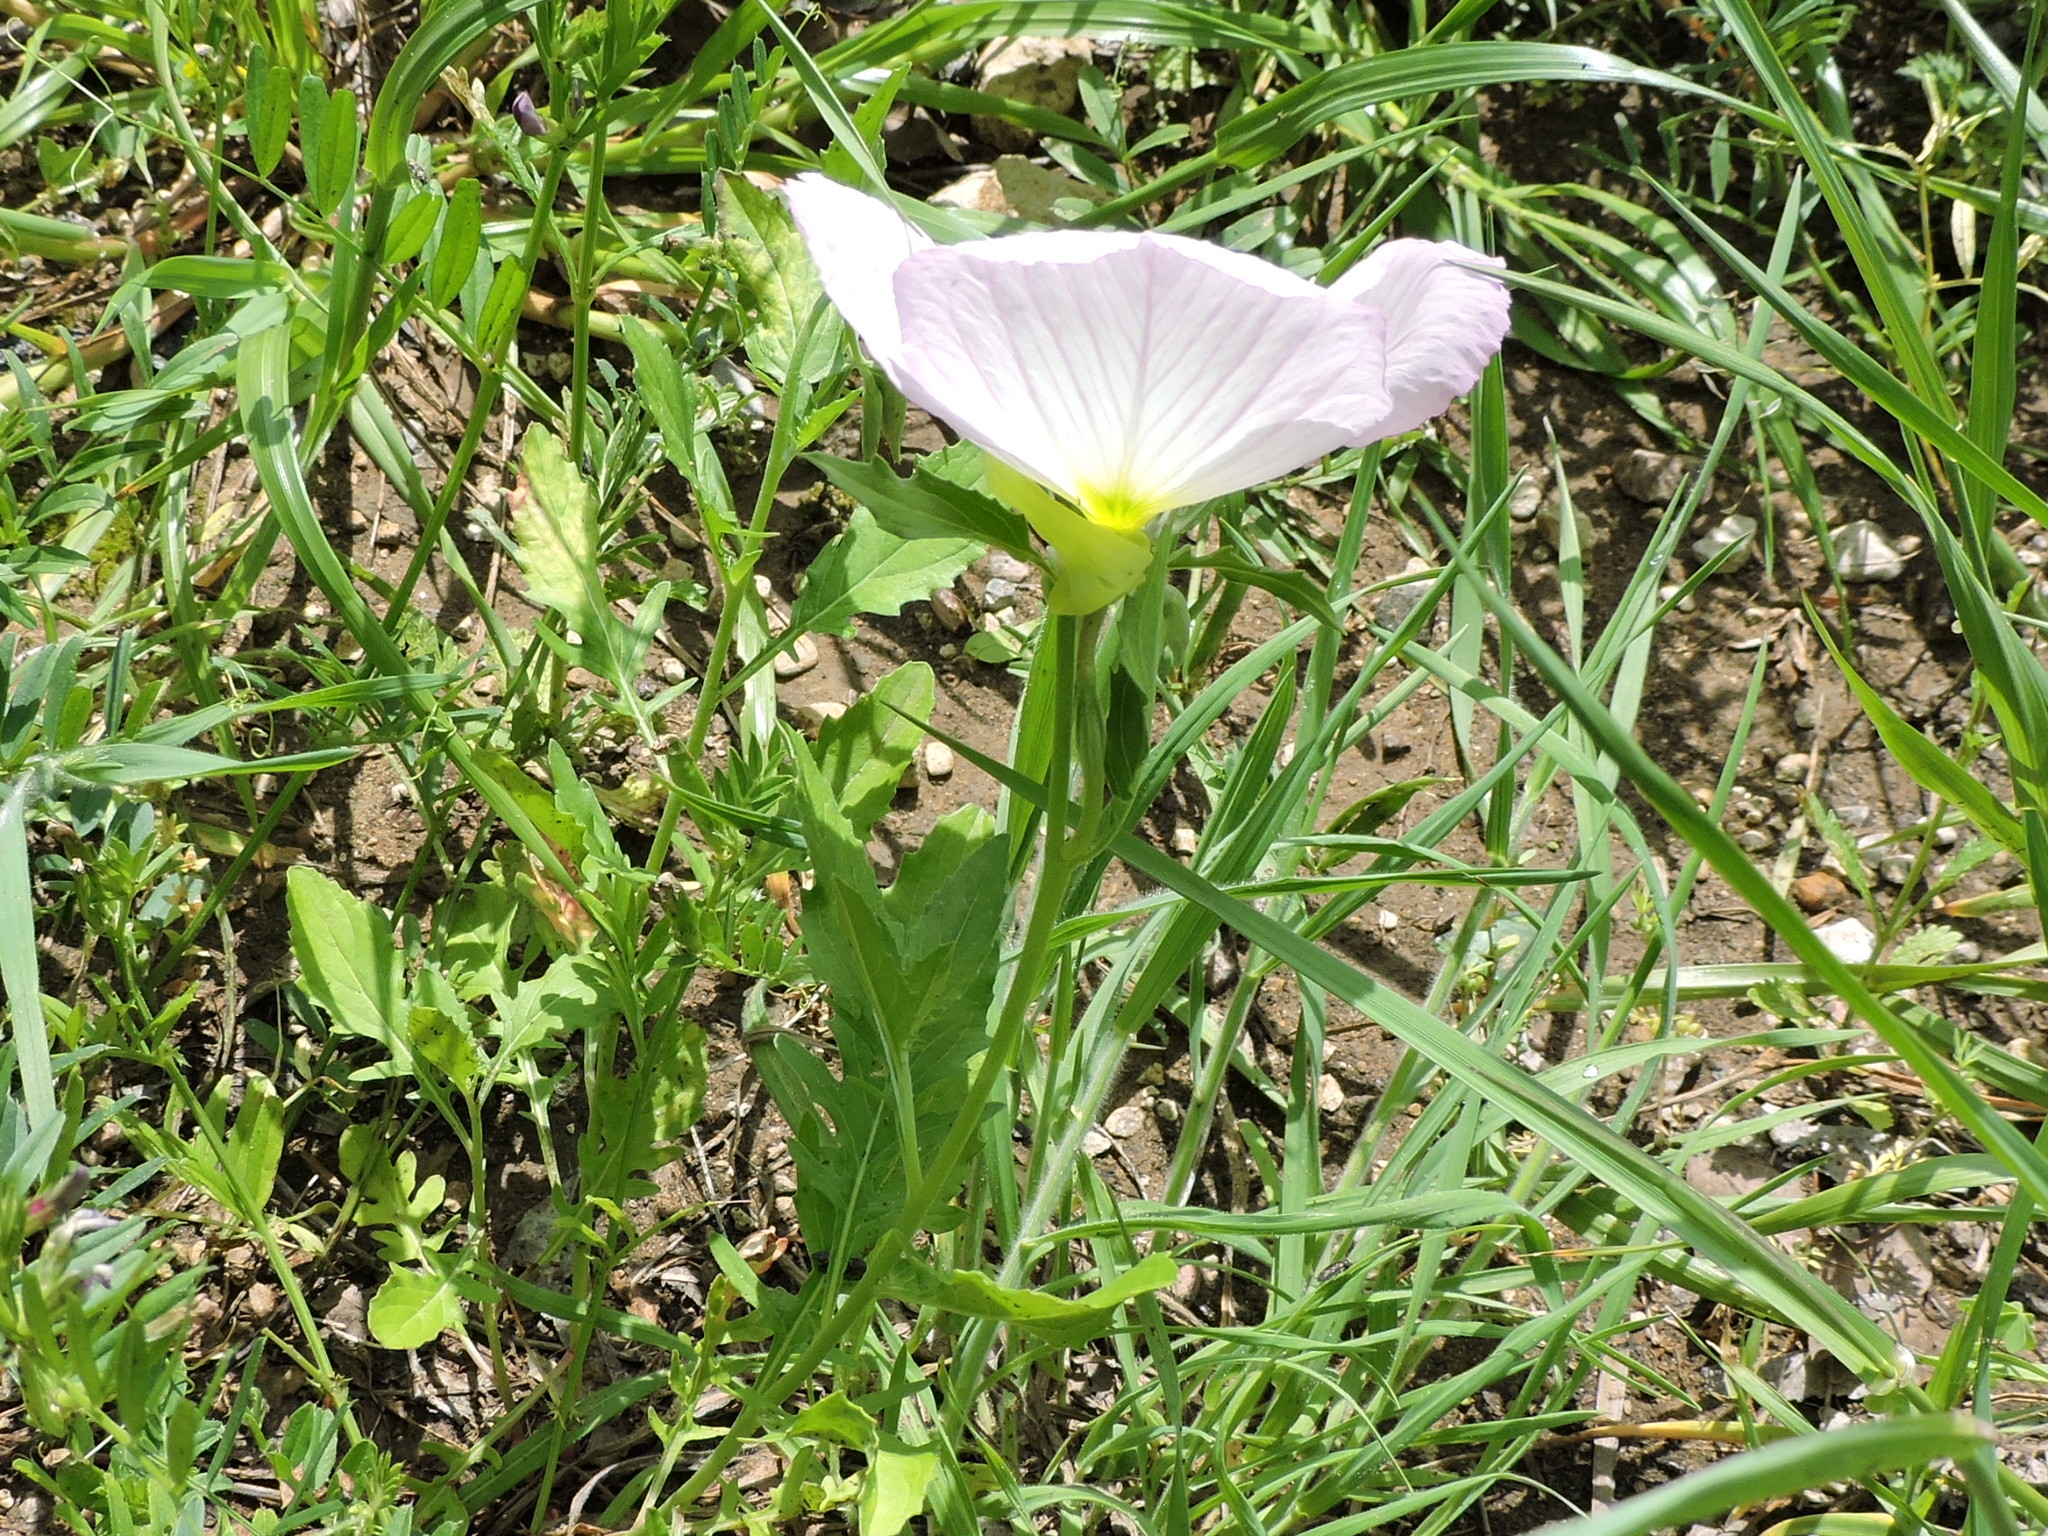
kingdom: Plantae
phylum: Tracheophyta
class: Magnoliopsida
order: Myrtales
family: Onagraceae
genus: Oenothera
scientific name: Oenothera speciosa
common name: White evening-primrose
